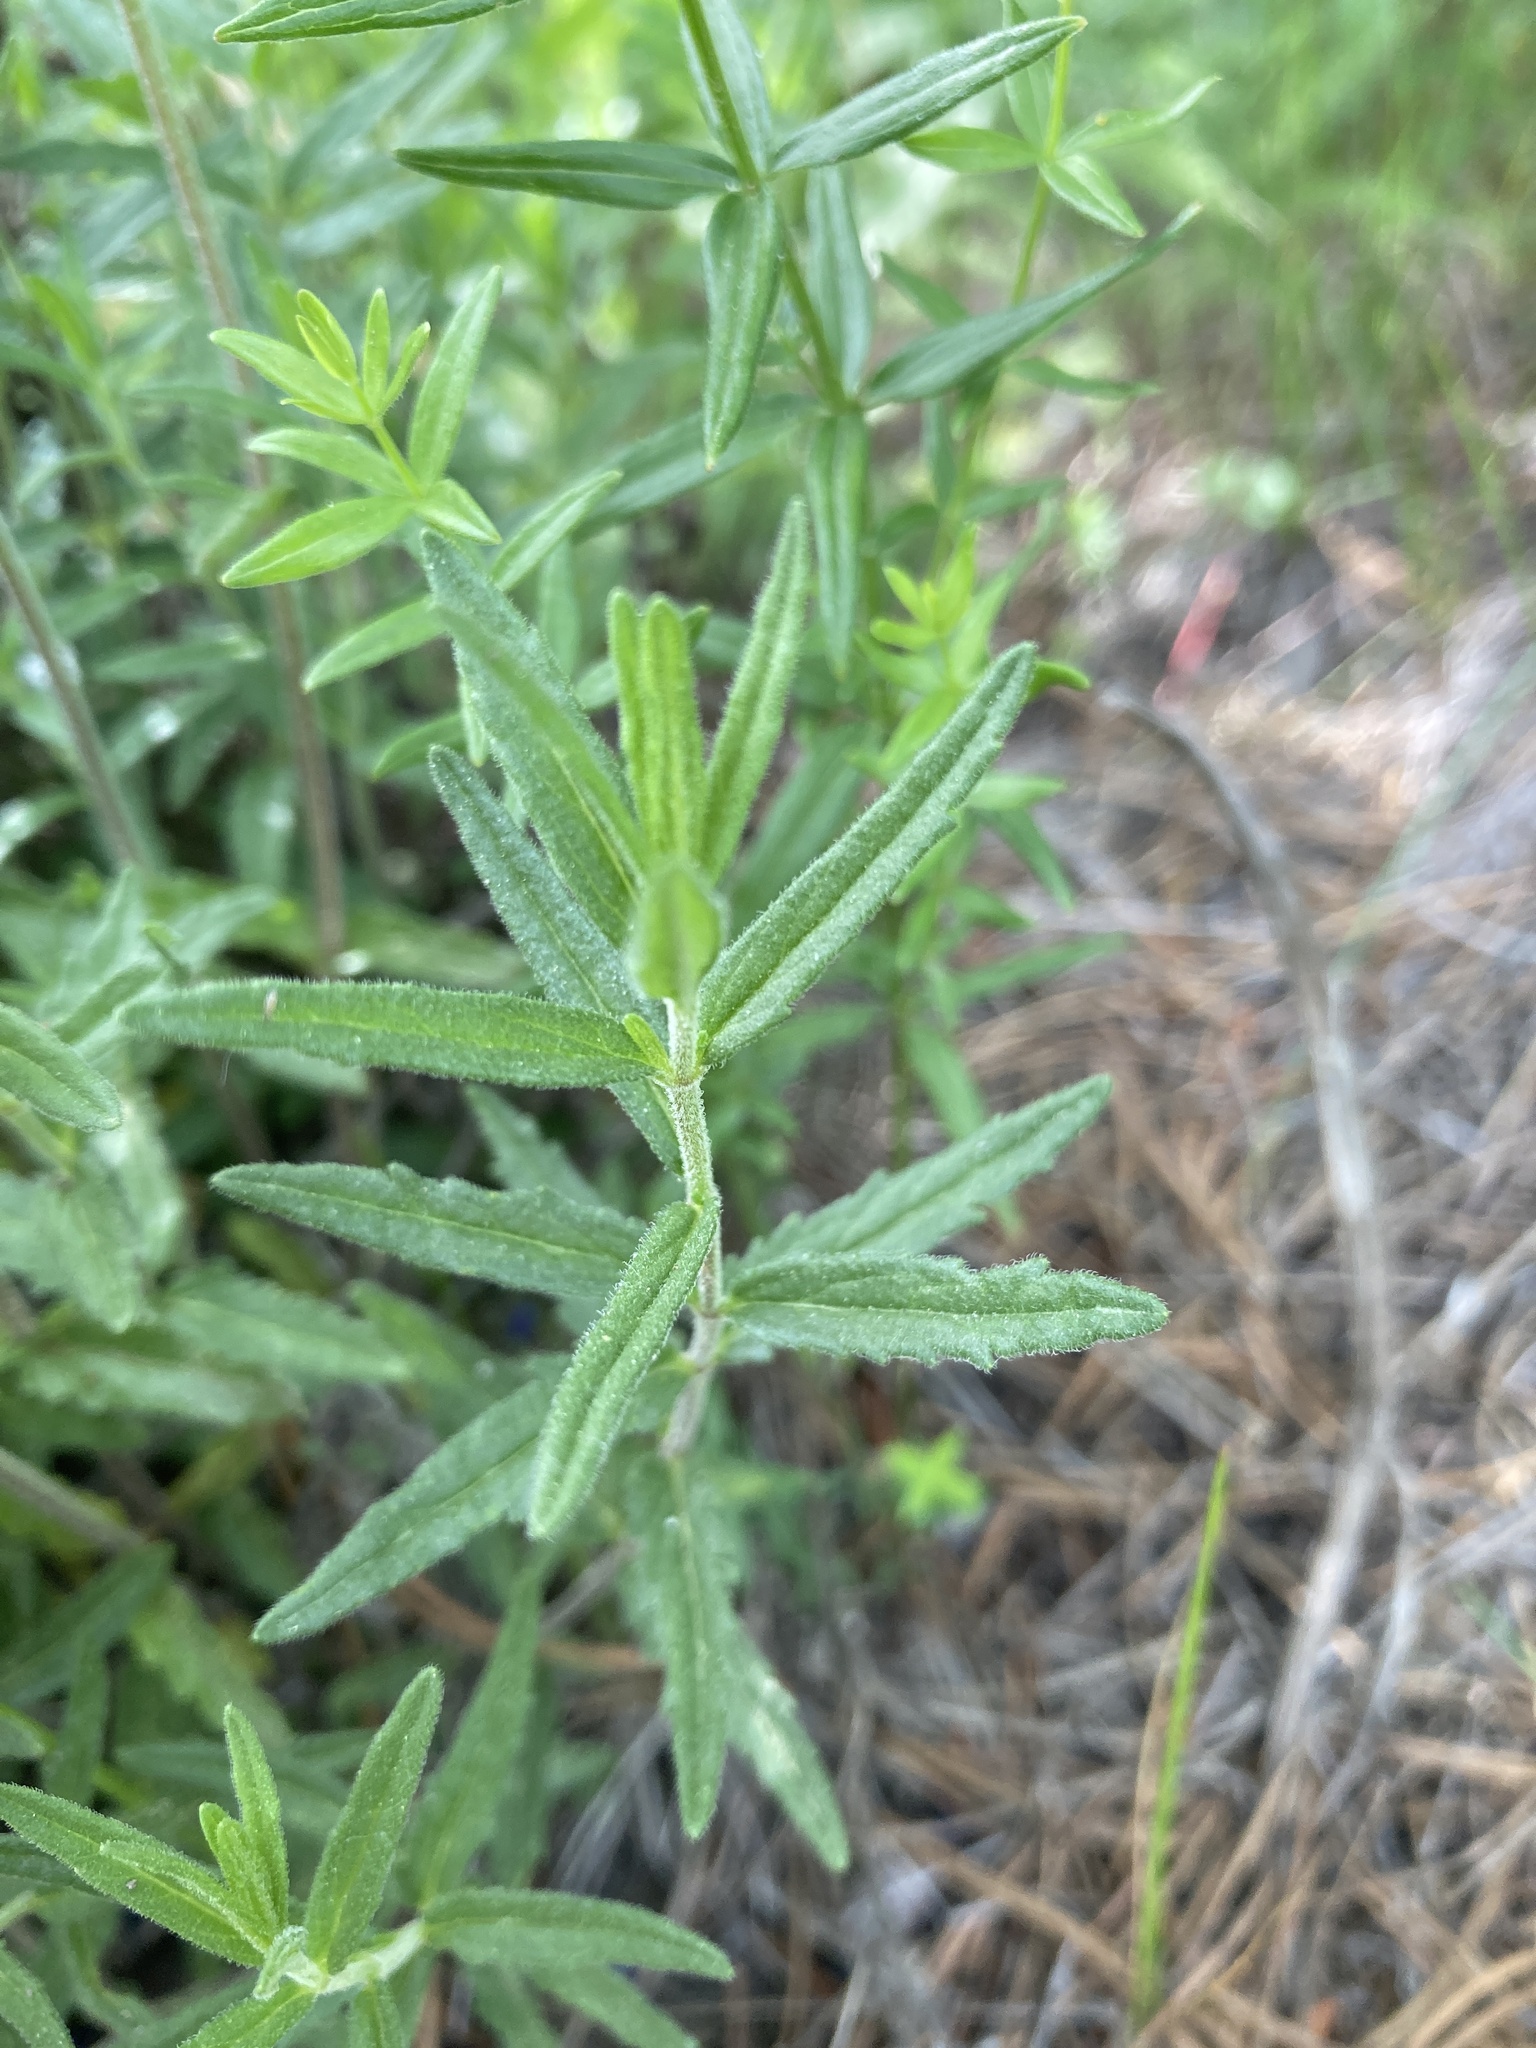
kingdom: Plantae
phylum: Tracheophyta
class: Magnoliopsida
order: Lamiales
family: Plantaginaceae
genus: Veronica
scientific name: Veronica teucrium
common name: Large speedwell
